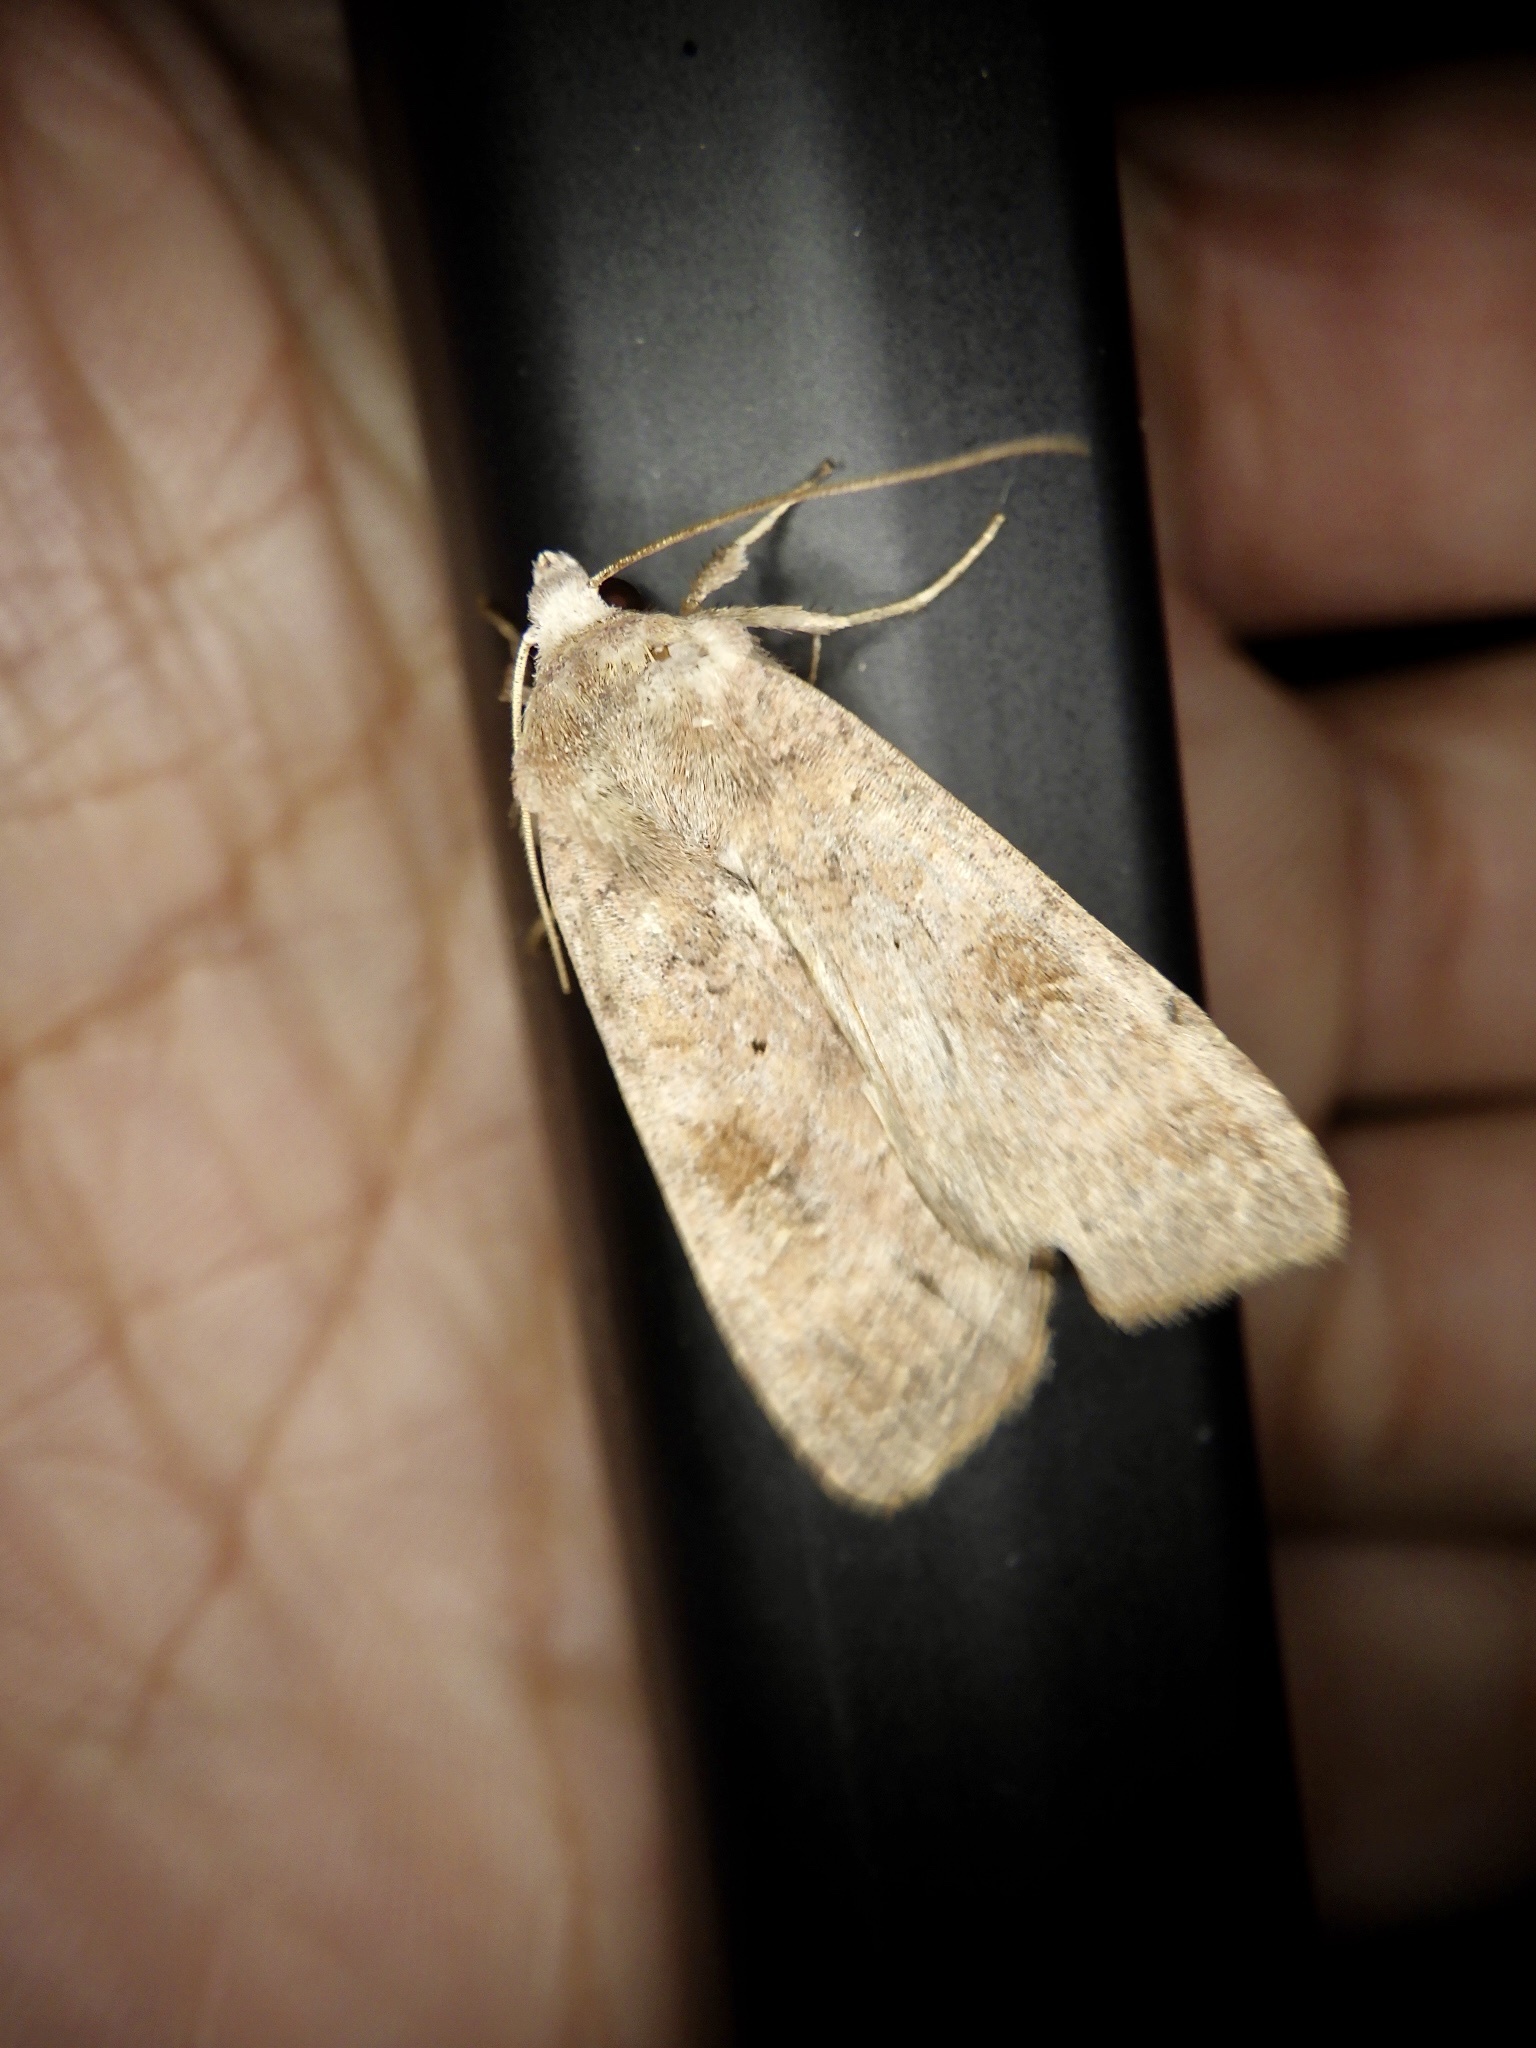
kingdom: Animalia
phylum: Arthropoda
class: Insecta
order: Lepidoptera
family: Noctuidae
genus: Diarsia
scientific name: Diarsia canescens
